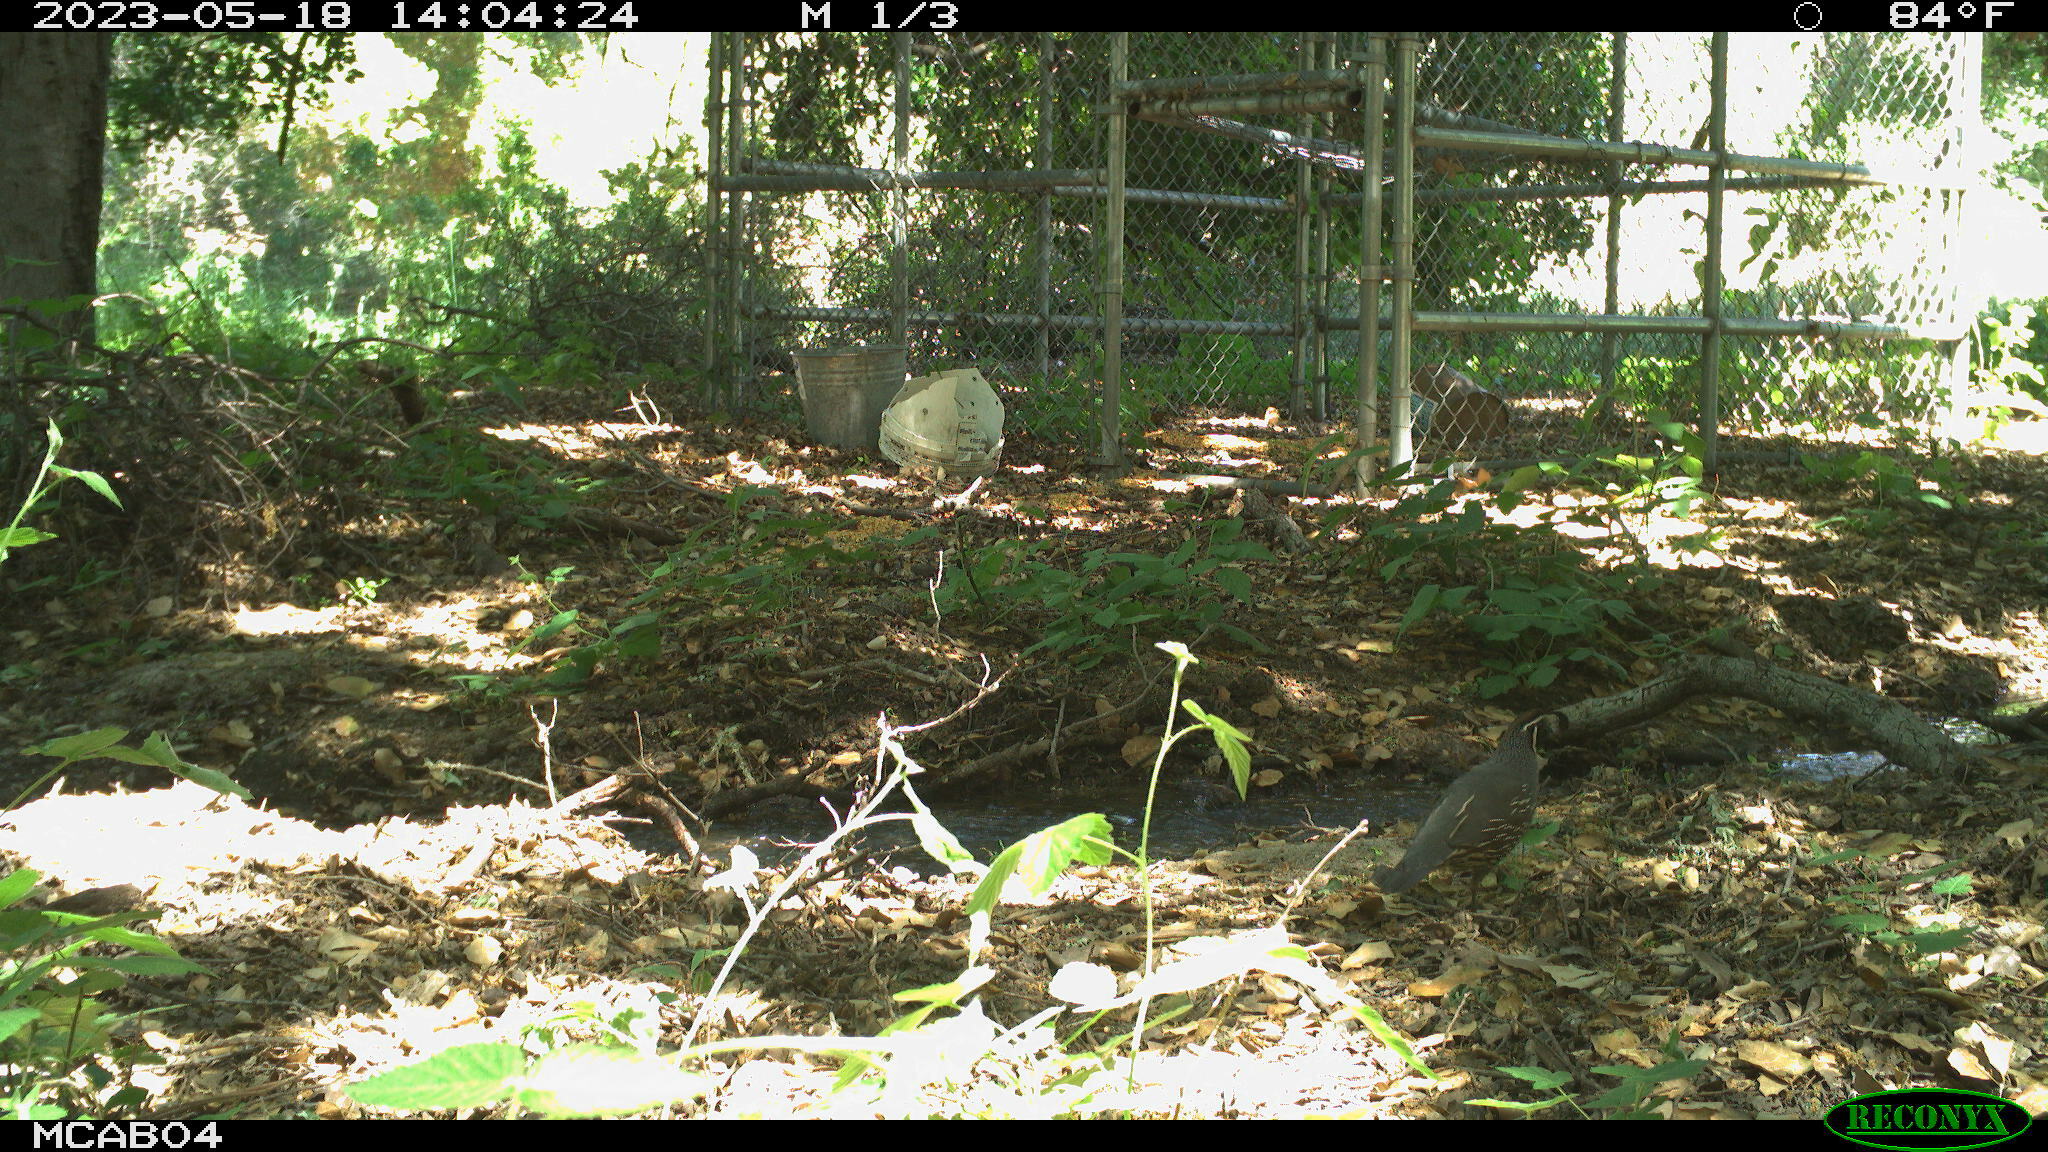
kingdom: Animalia
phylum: Chordata
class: Aves
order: Galliformes
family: Odontophoridae
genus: Callipepla
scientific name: Callipepla californica
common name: California quail
